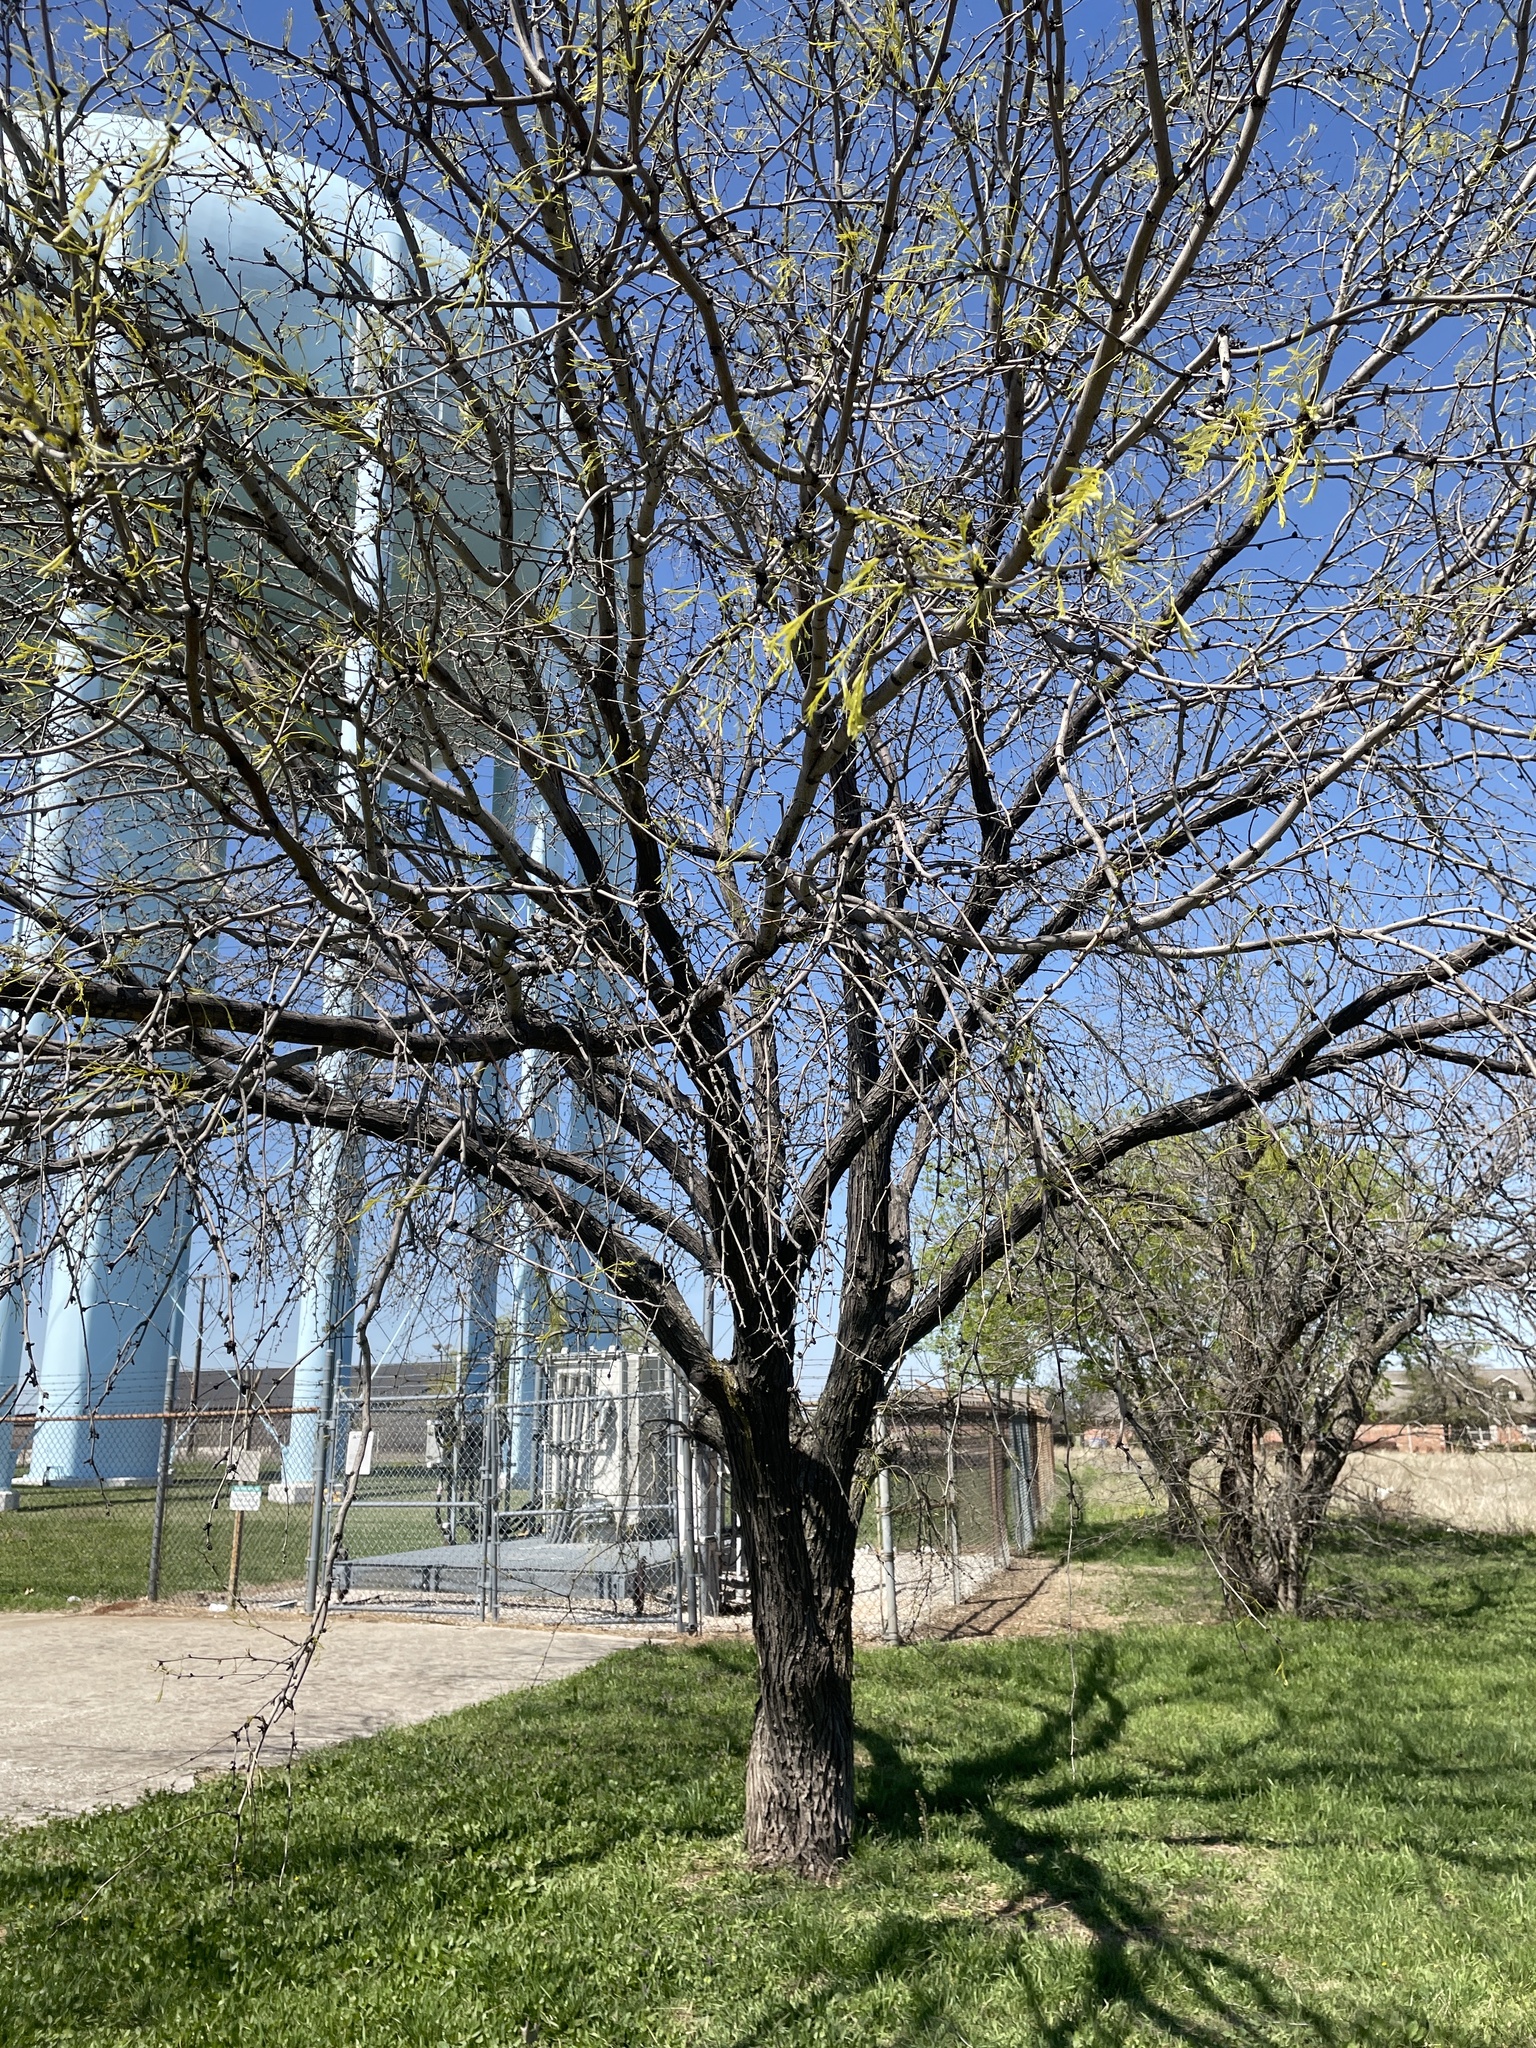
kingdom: Plantae
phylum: Tracheophyta
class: Magnoliopsida
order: Fabales
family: Fabaceae
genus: Prosopis
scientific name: Prosopis glandulosa
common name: Honey mesquite
